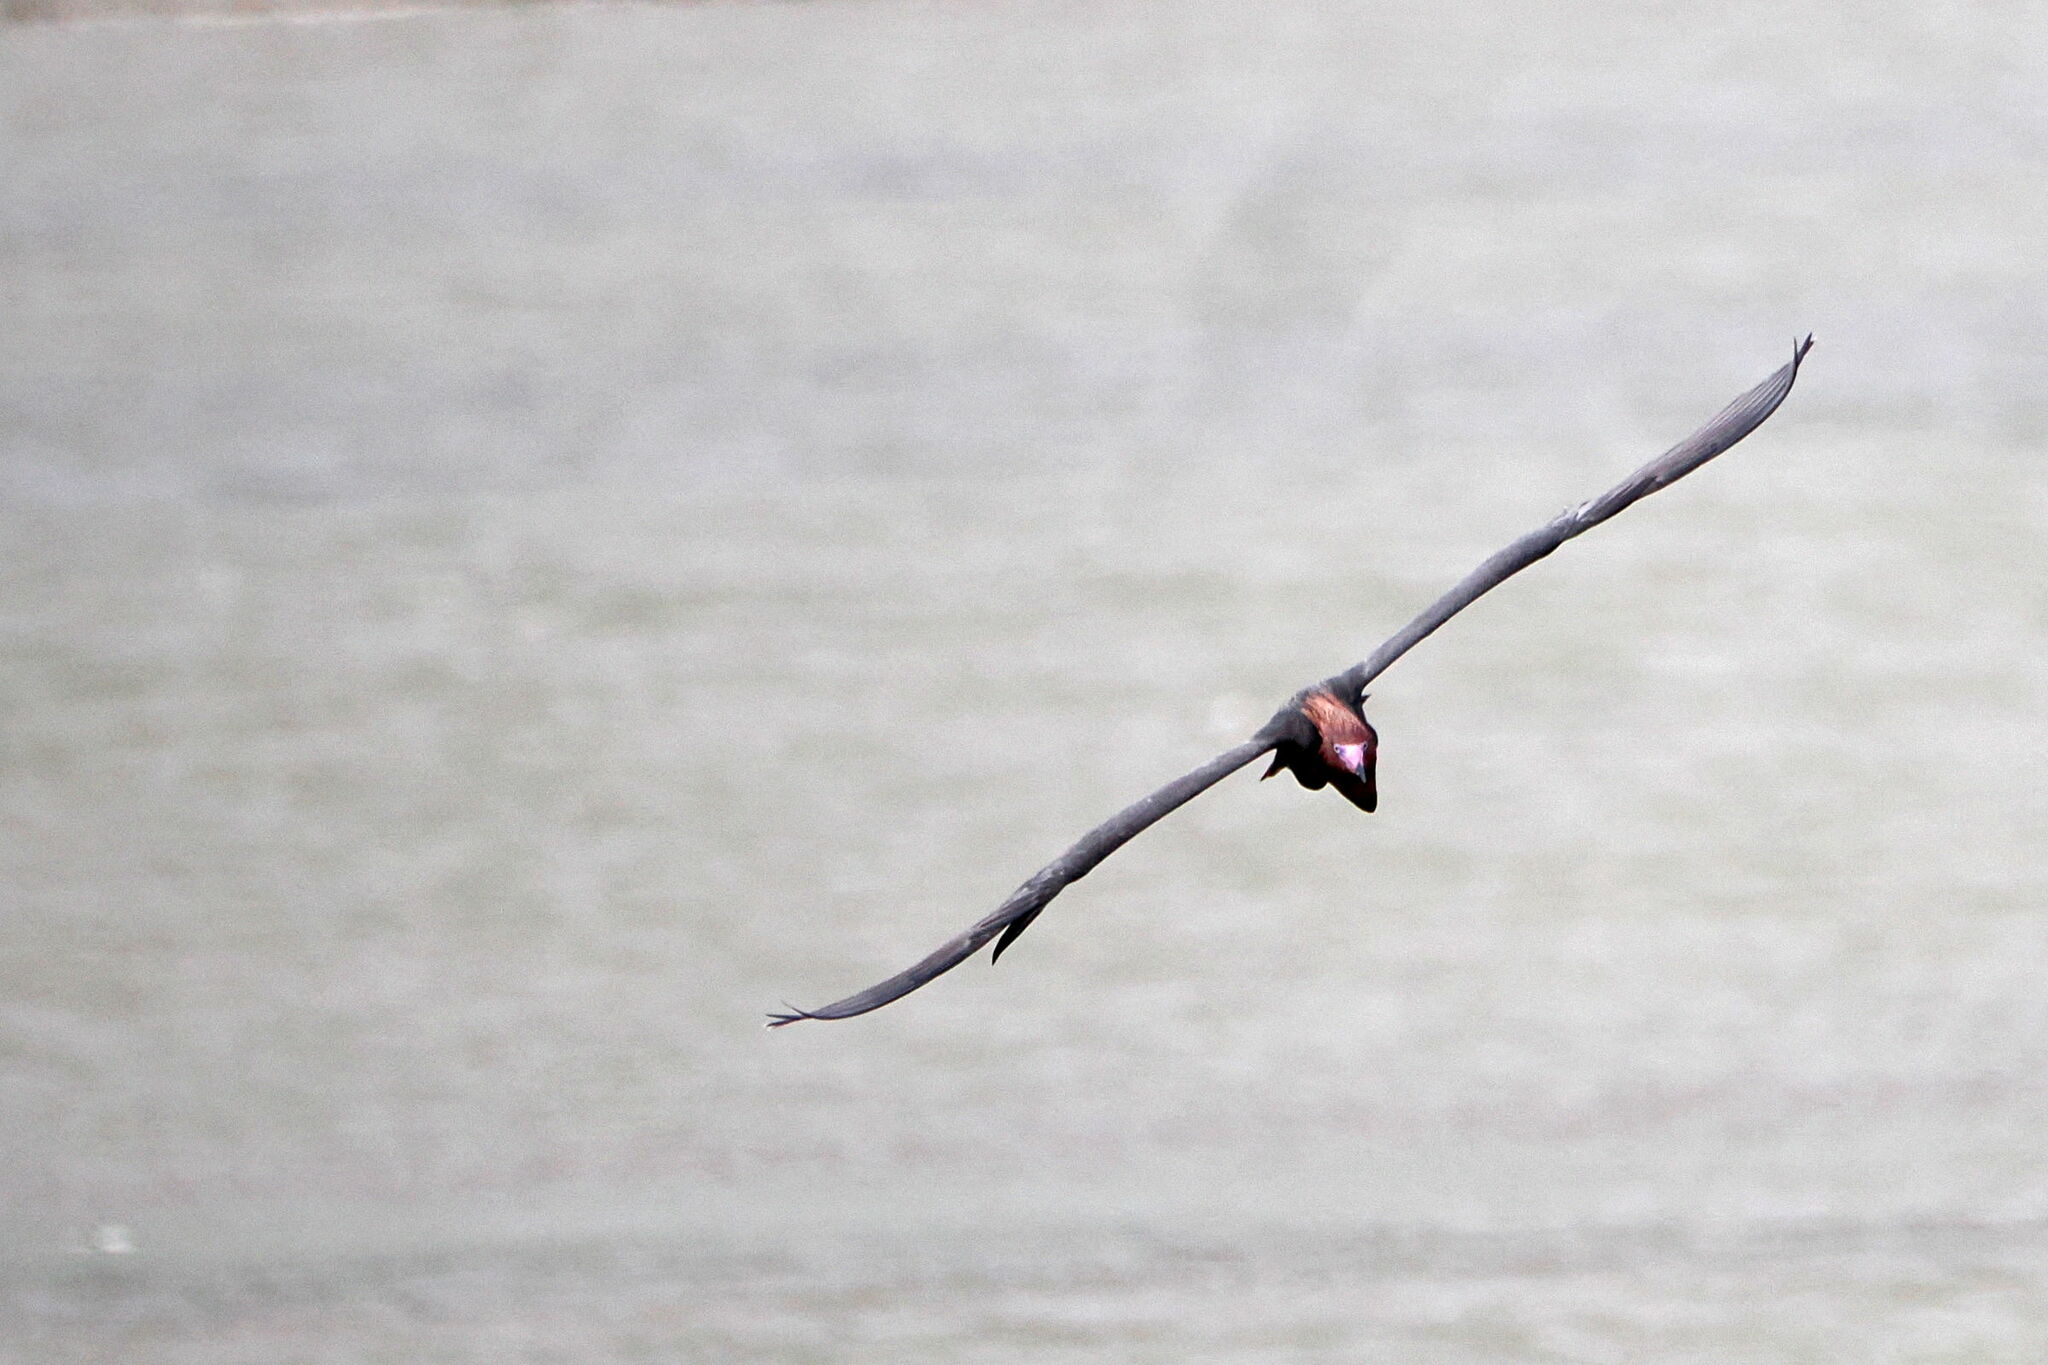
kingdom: Animalia
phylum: Chordata
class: Aves
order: Pelecaniformes
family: Ardeidae
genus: Egretta
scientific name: Egretta rufescens
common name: Reddish egret
